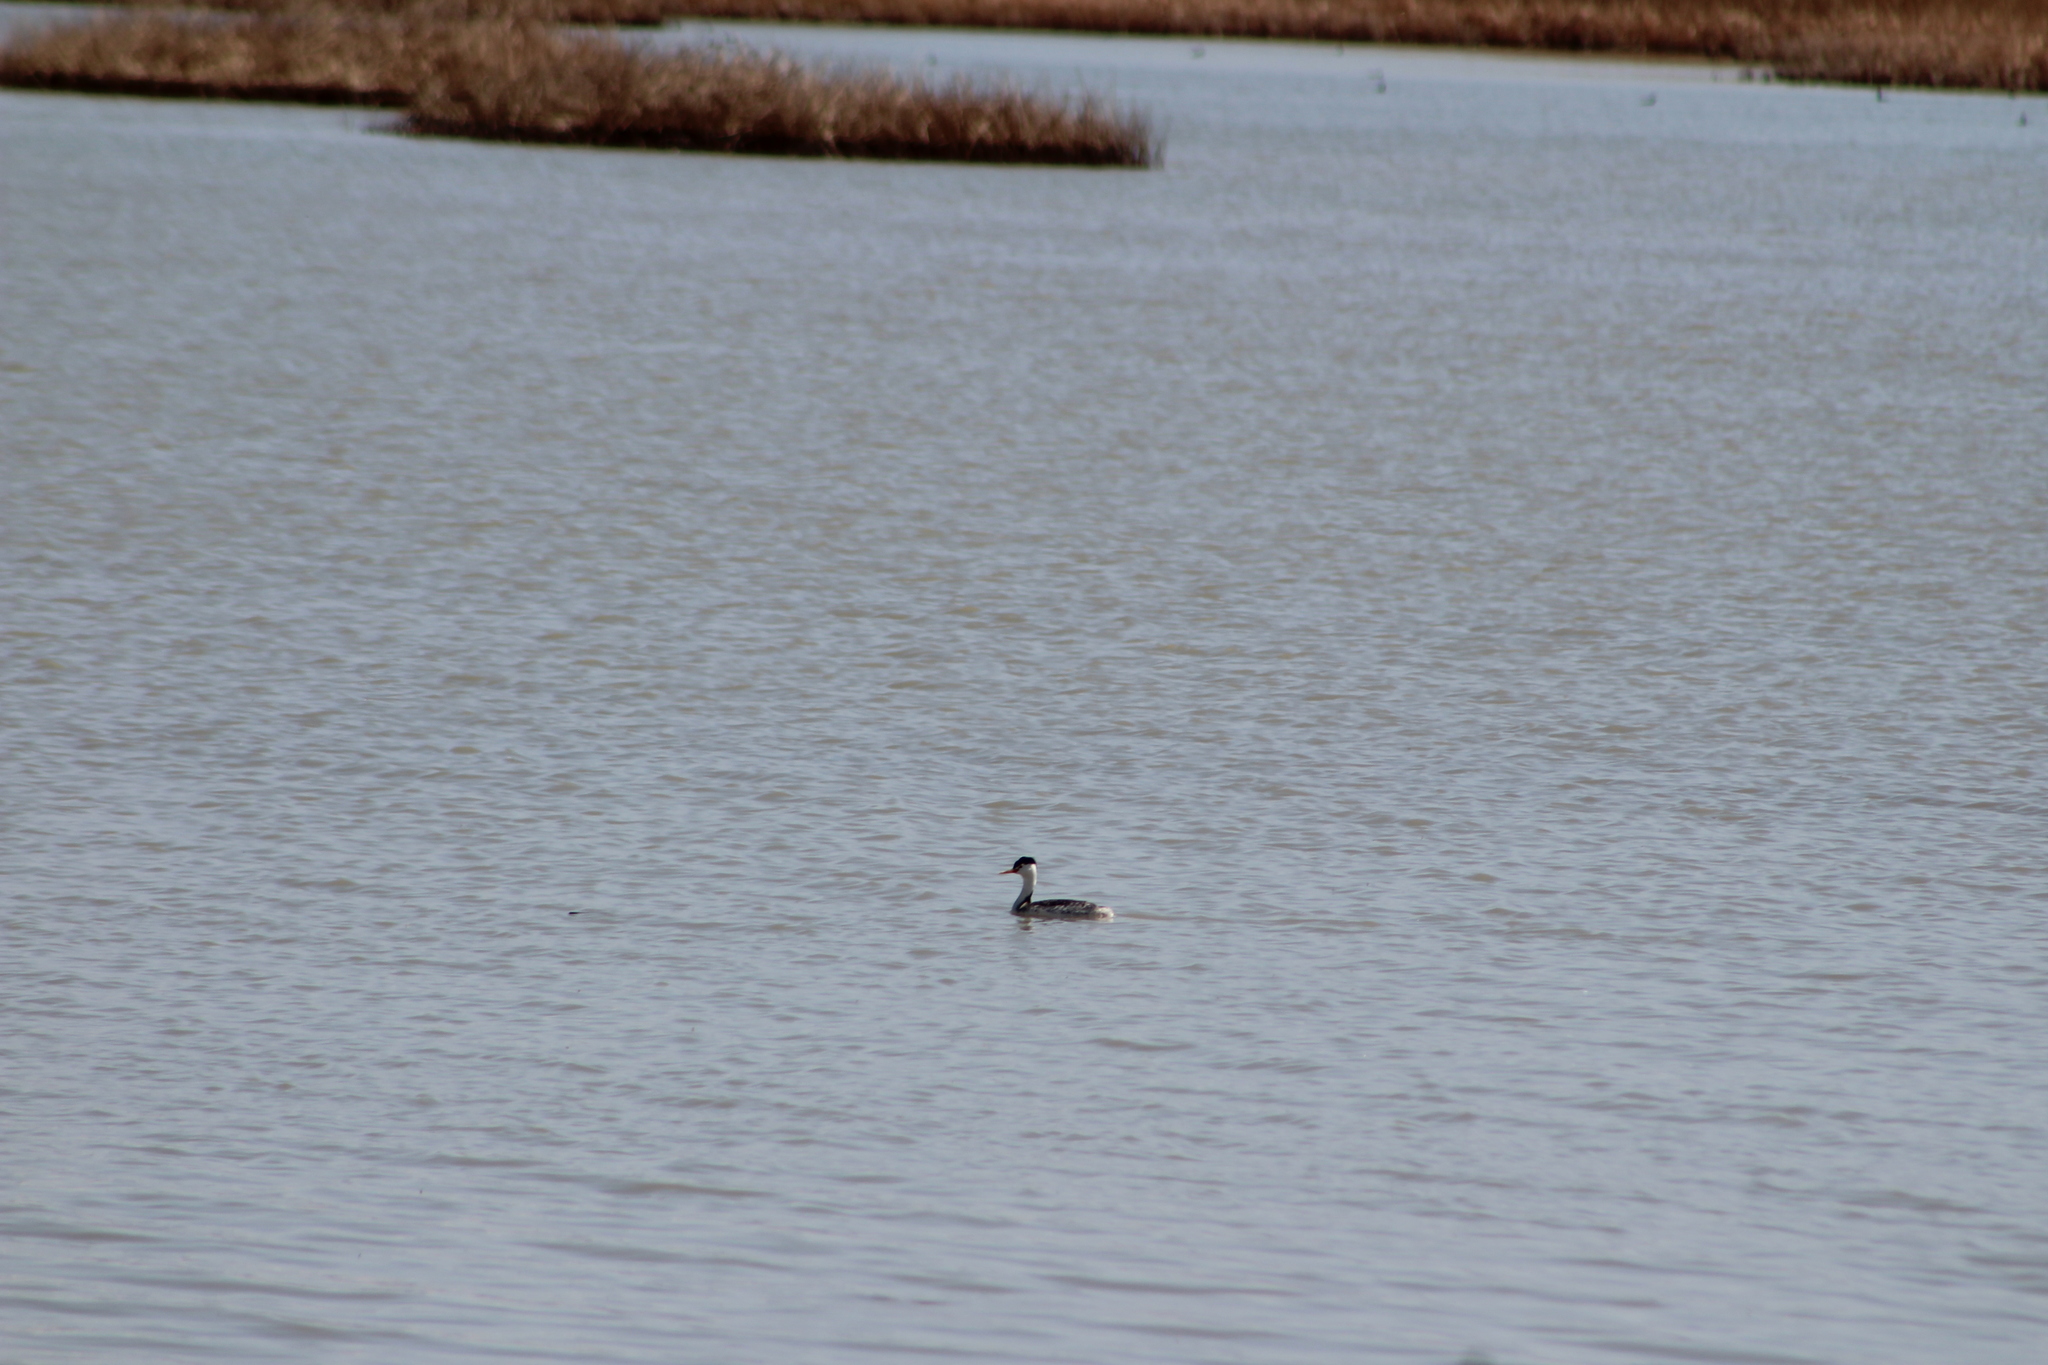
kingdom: Animalia
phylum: Chordata
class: Aves
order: Podicipediformes
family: Podicipedidae
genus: Aechmophorus
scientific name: Aechmophorus clarkii
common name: Clark's grebe
